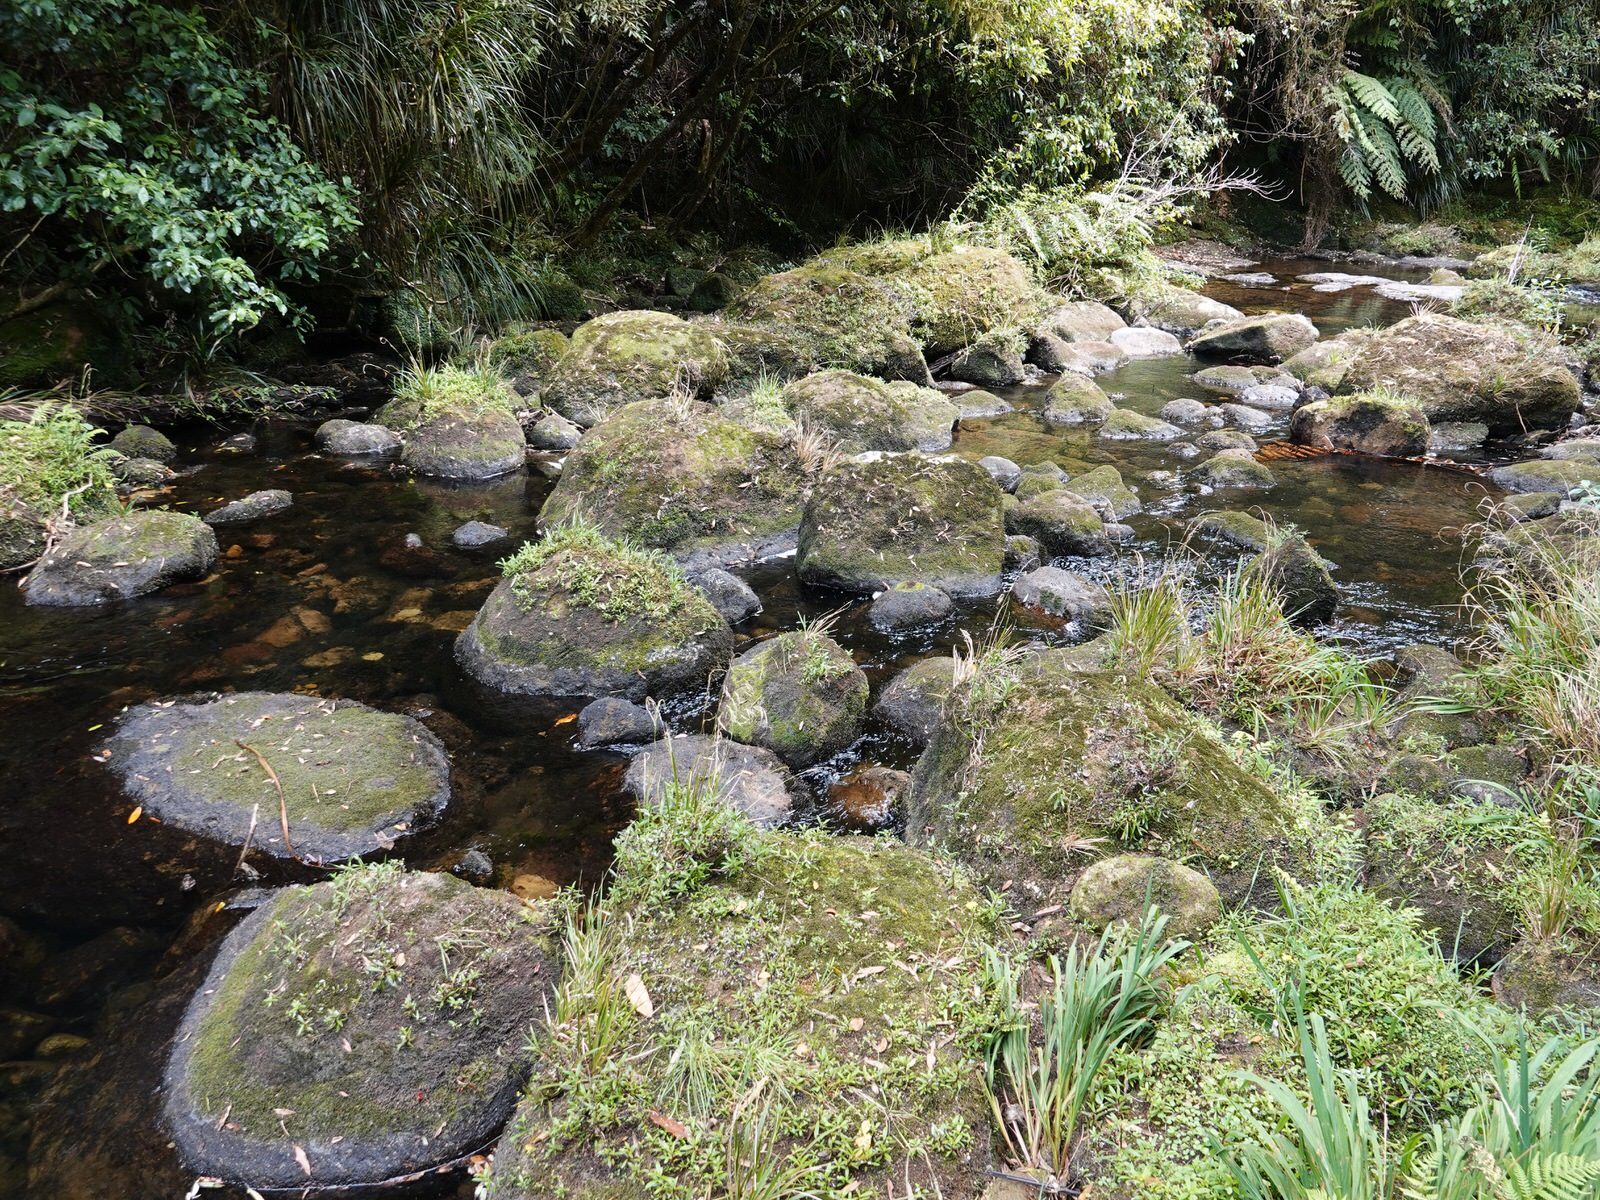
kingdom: Plantae
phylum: Tracheophyta
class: Magnoliopsida
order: Asterales
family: Asteraceae
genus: Anaphalioides
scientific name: Anaphalioides trinervis
